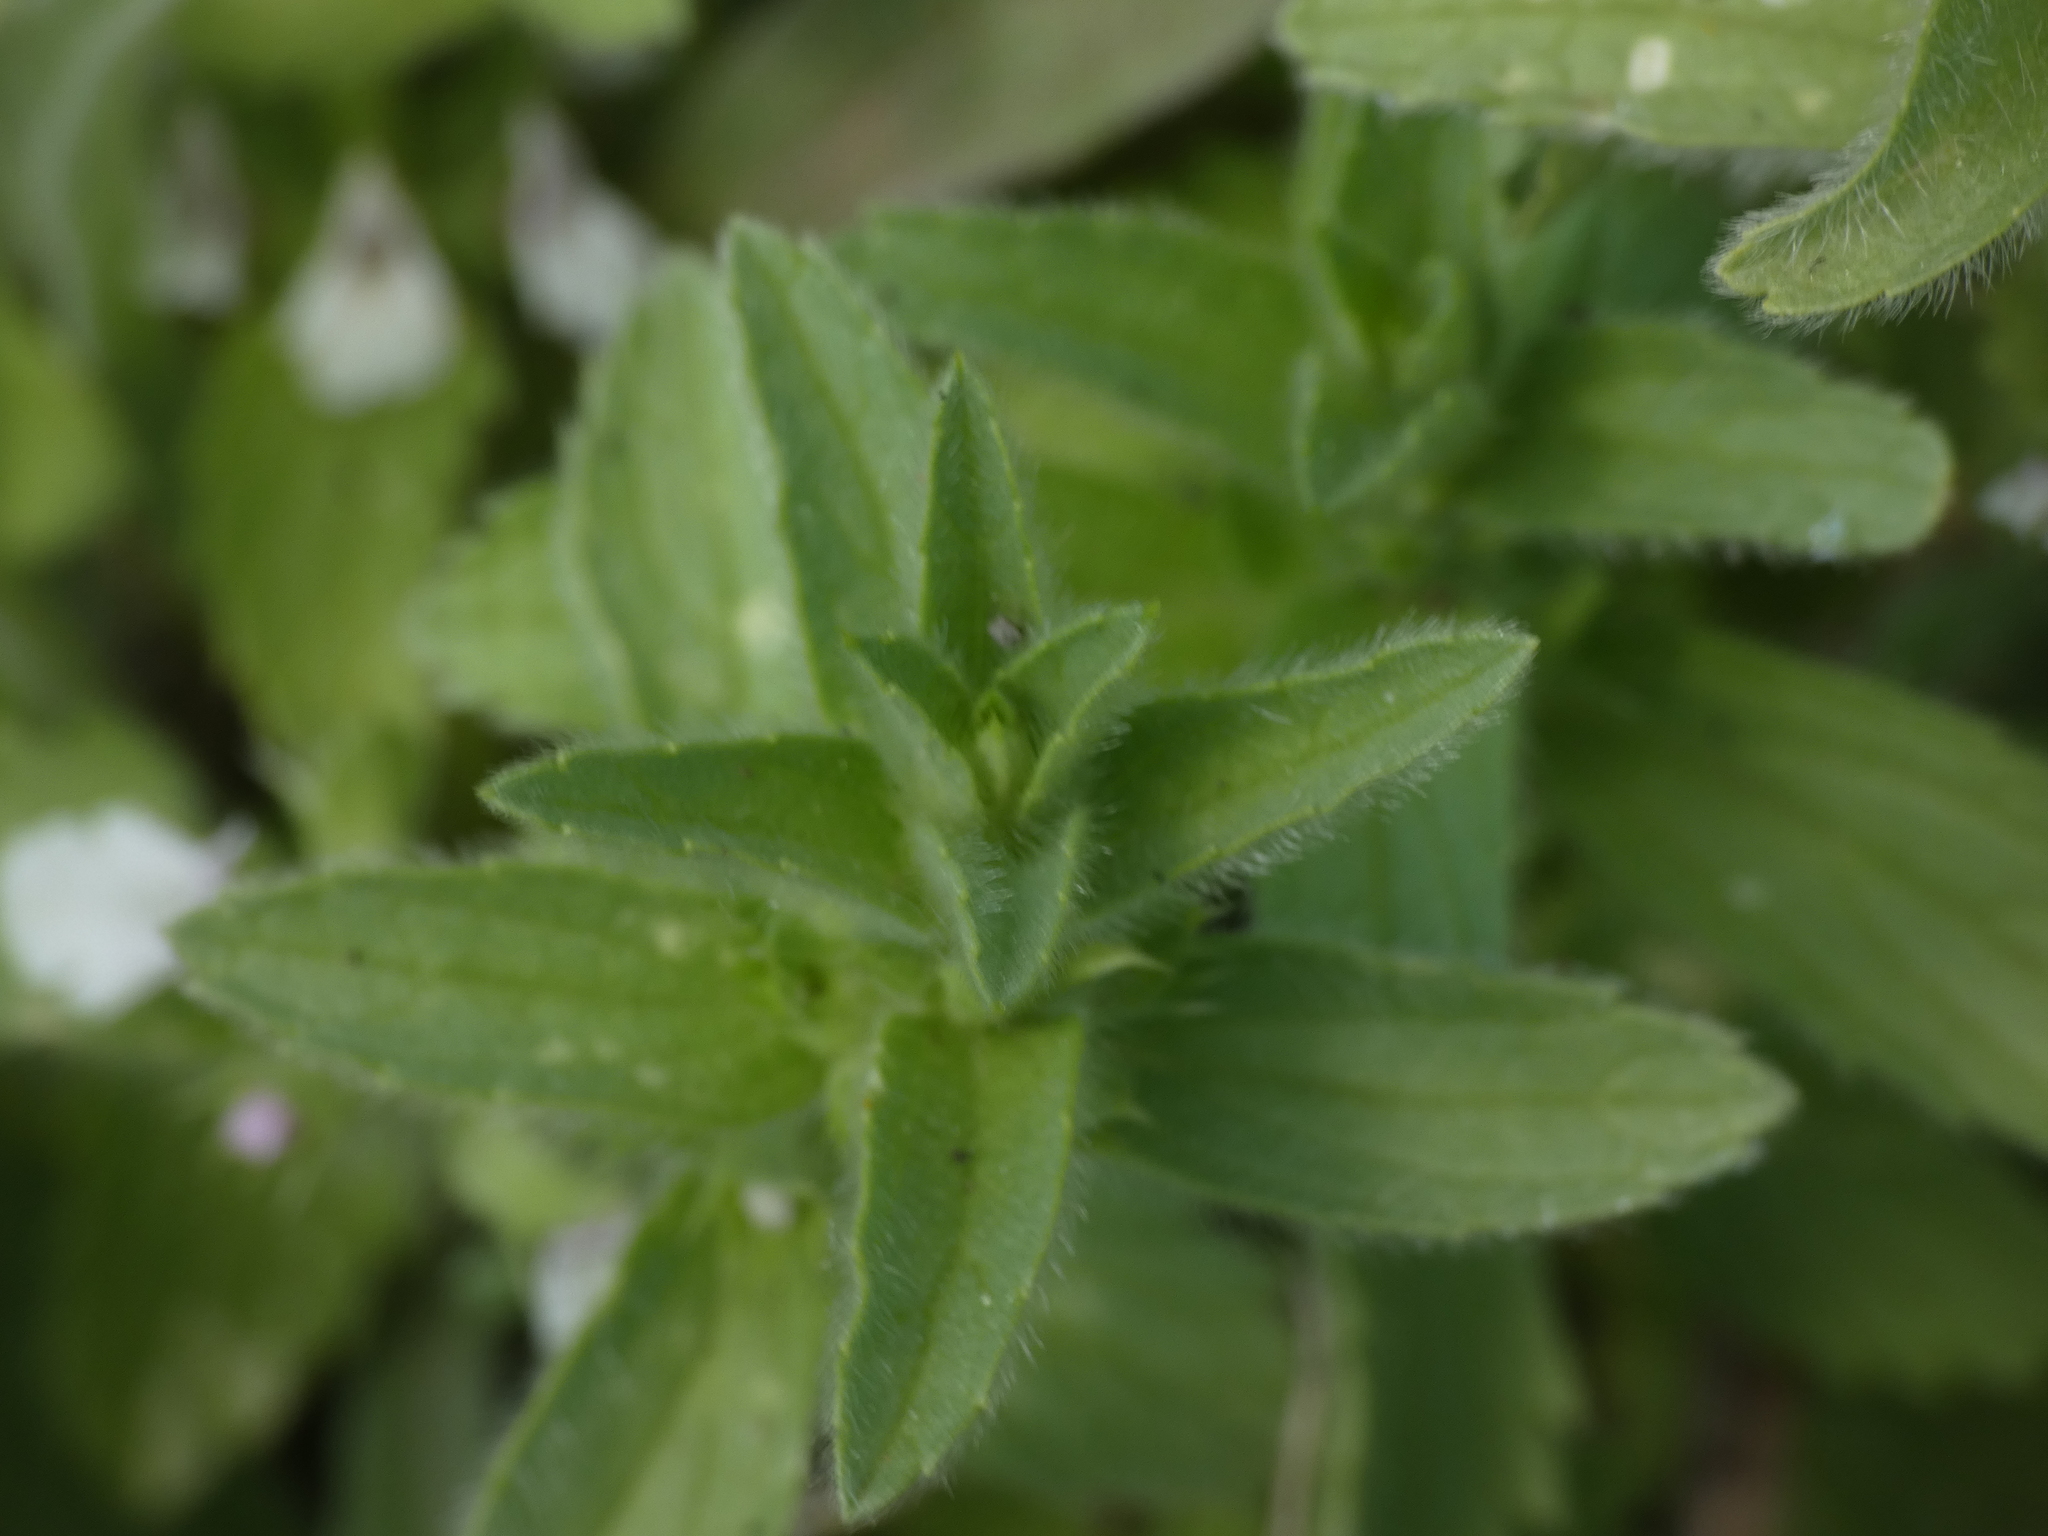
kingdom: Plantae
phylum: Tracheophyta
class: Magnoliopsida
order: Lamiales
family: Lamiaceae
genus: Sideritis
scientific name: Sideritis romana
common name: Simplebeak ironwort
